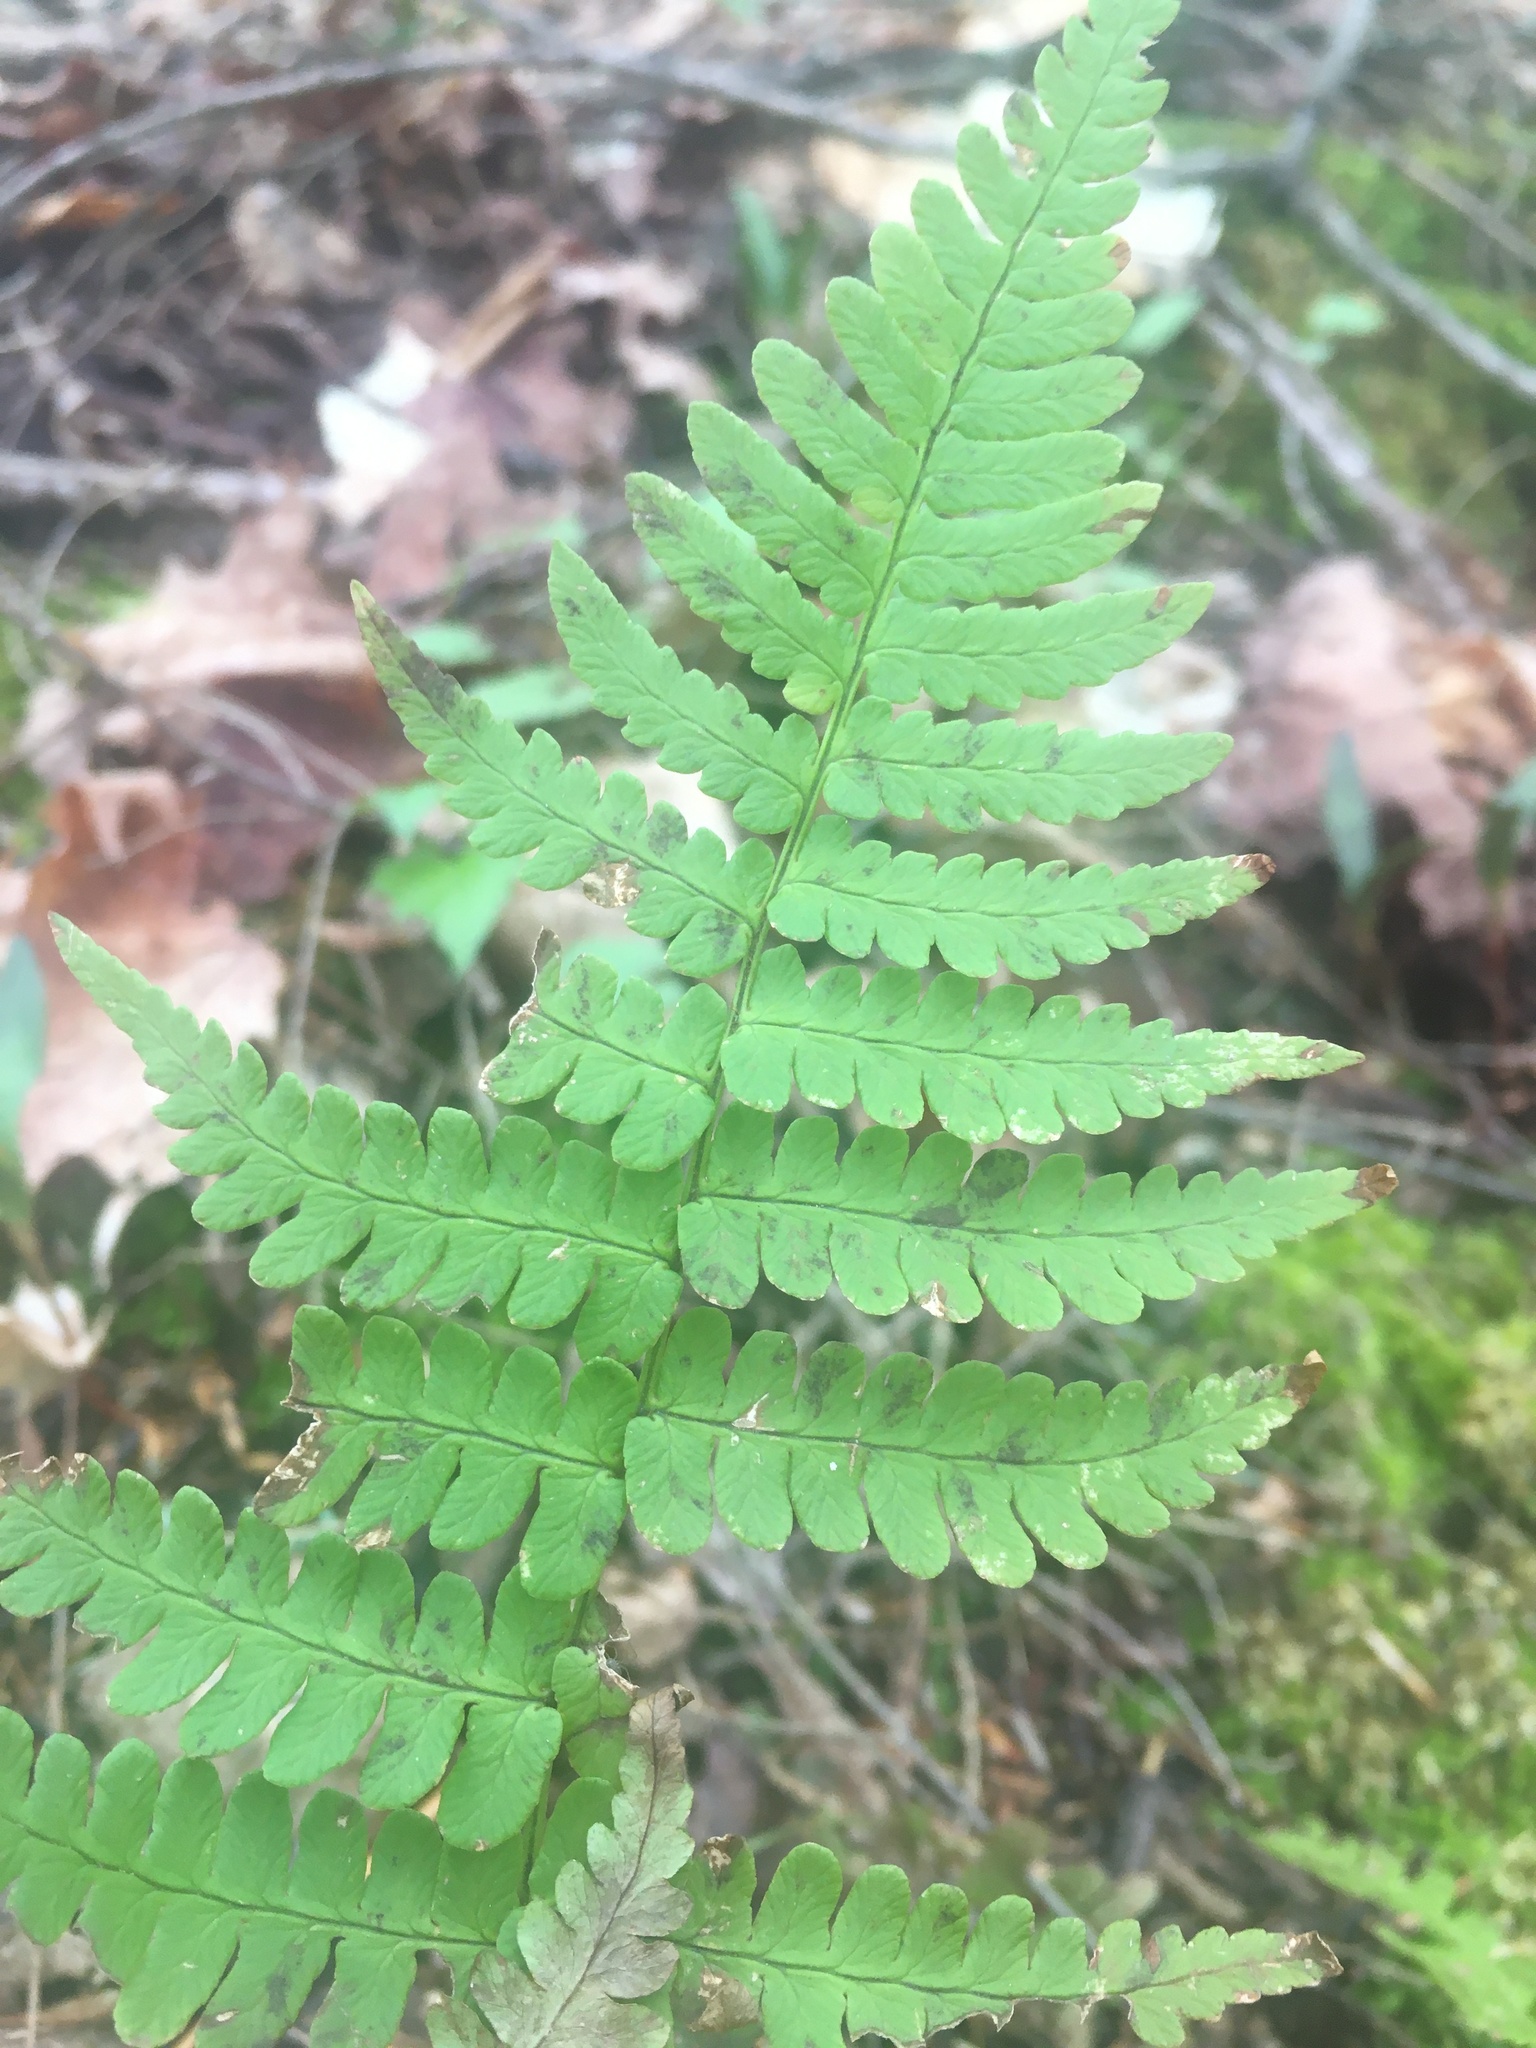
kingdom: Plantae
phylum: Tracheophyta
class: Polypodiopsida
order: Polypodiales
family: Dryopteridaceae
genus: Dryopteris
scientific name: Dryopteris marginalis
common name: Marginal wood fern
